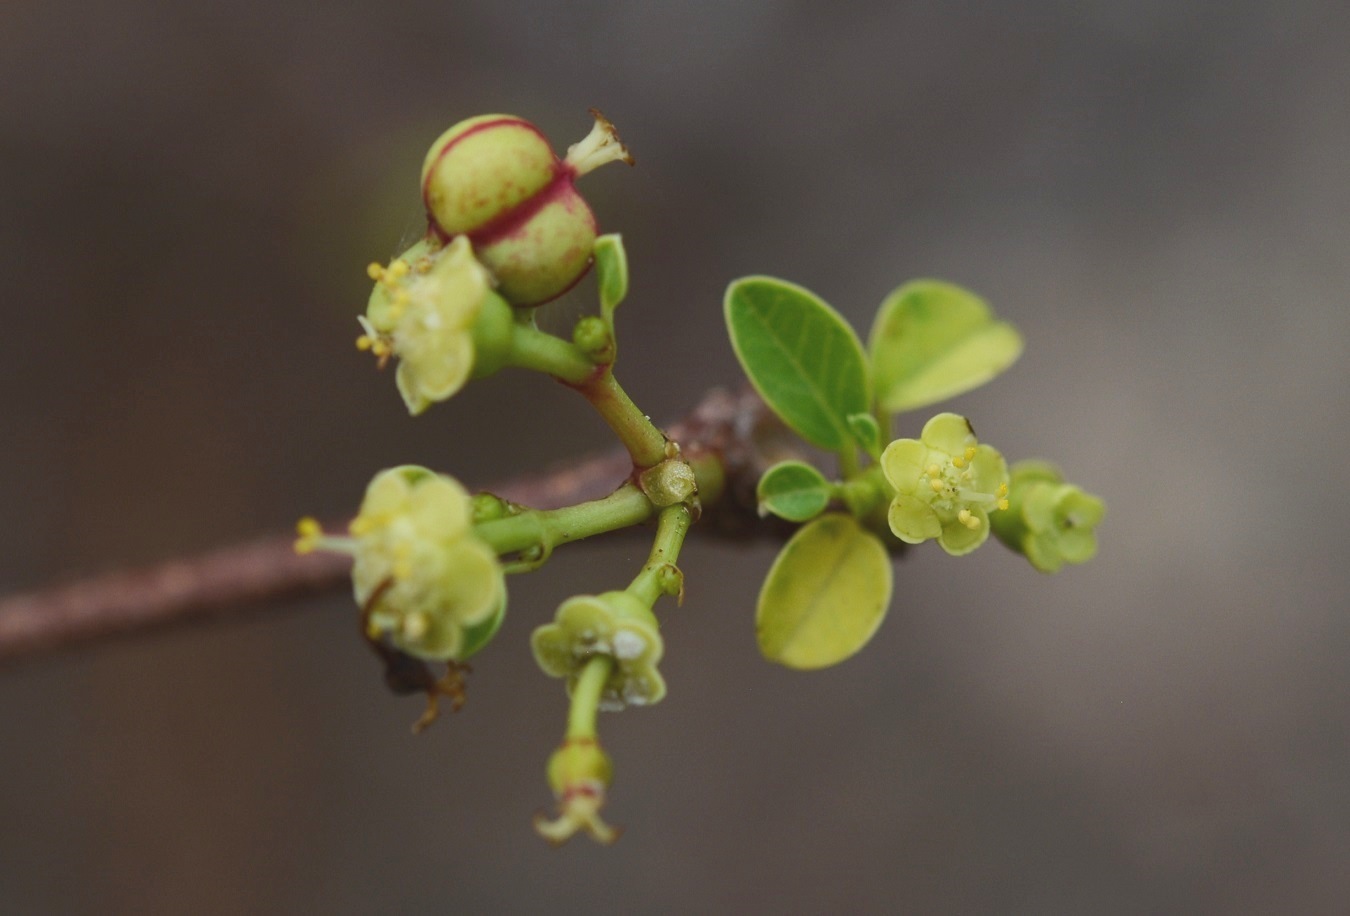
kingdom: Plantae
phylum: Tracheophyta
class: Magnoliopsida
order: Malpighiales
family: Euphorbiaceae
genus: Euphorbia
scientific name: Euphorbia schlechtendalii
